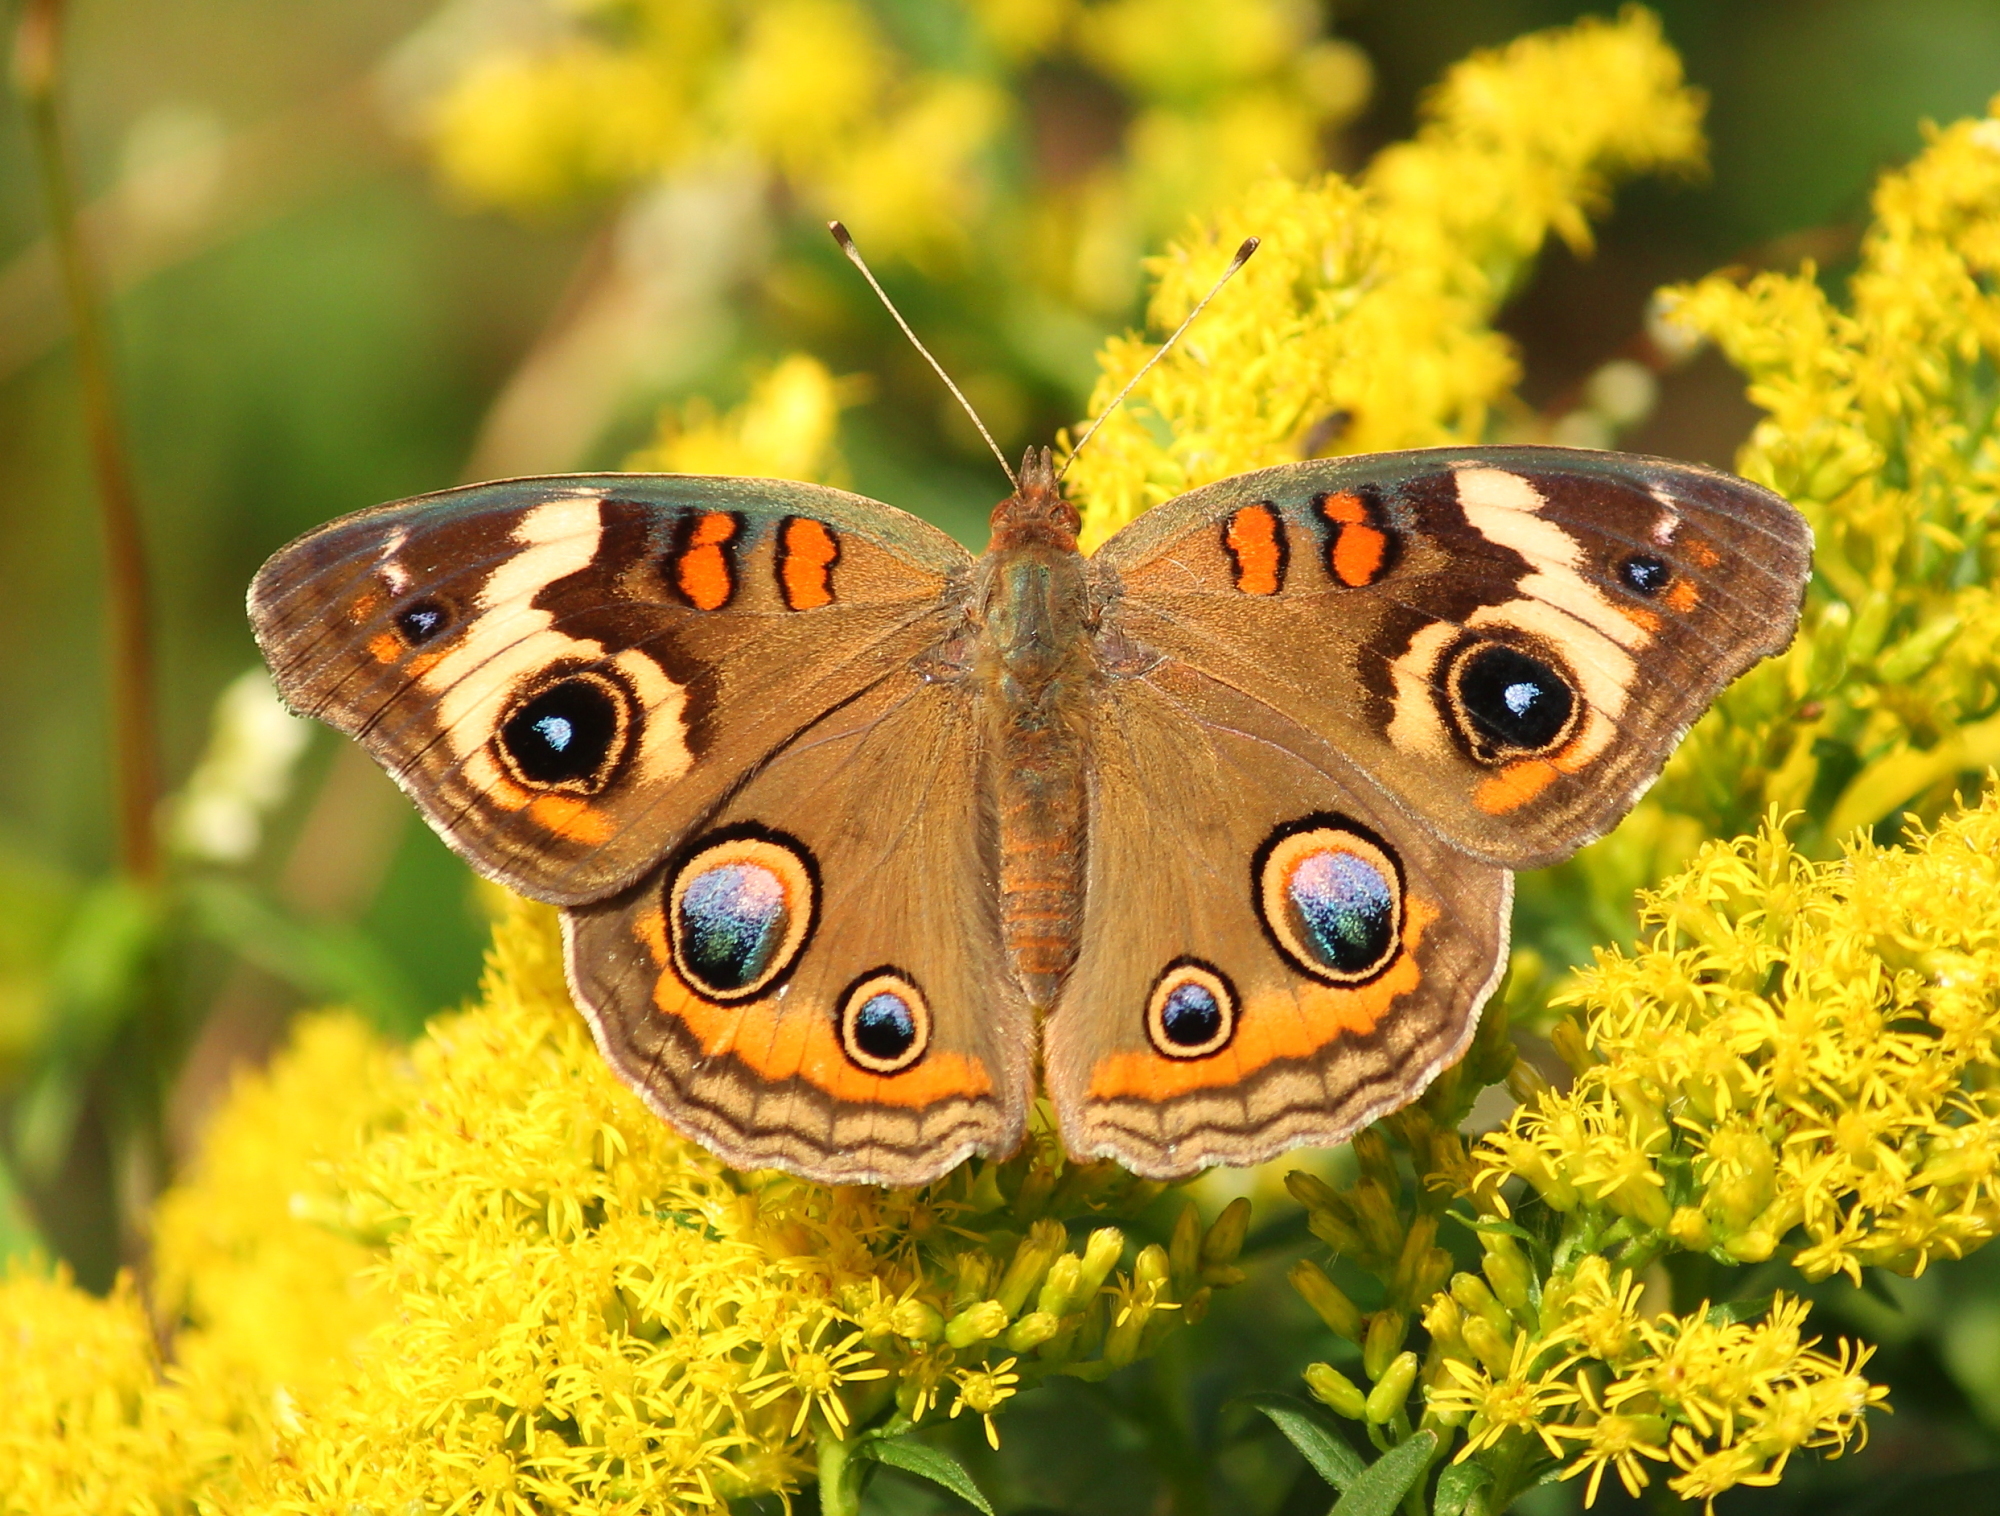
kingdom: Animalia
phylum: Arthropoda
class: Insecta
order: Lepidoptera
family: Nymphalidae
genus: Junonia
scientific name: Junonia coenia
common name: Common buckeye
